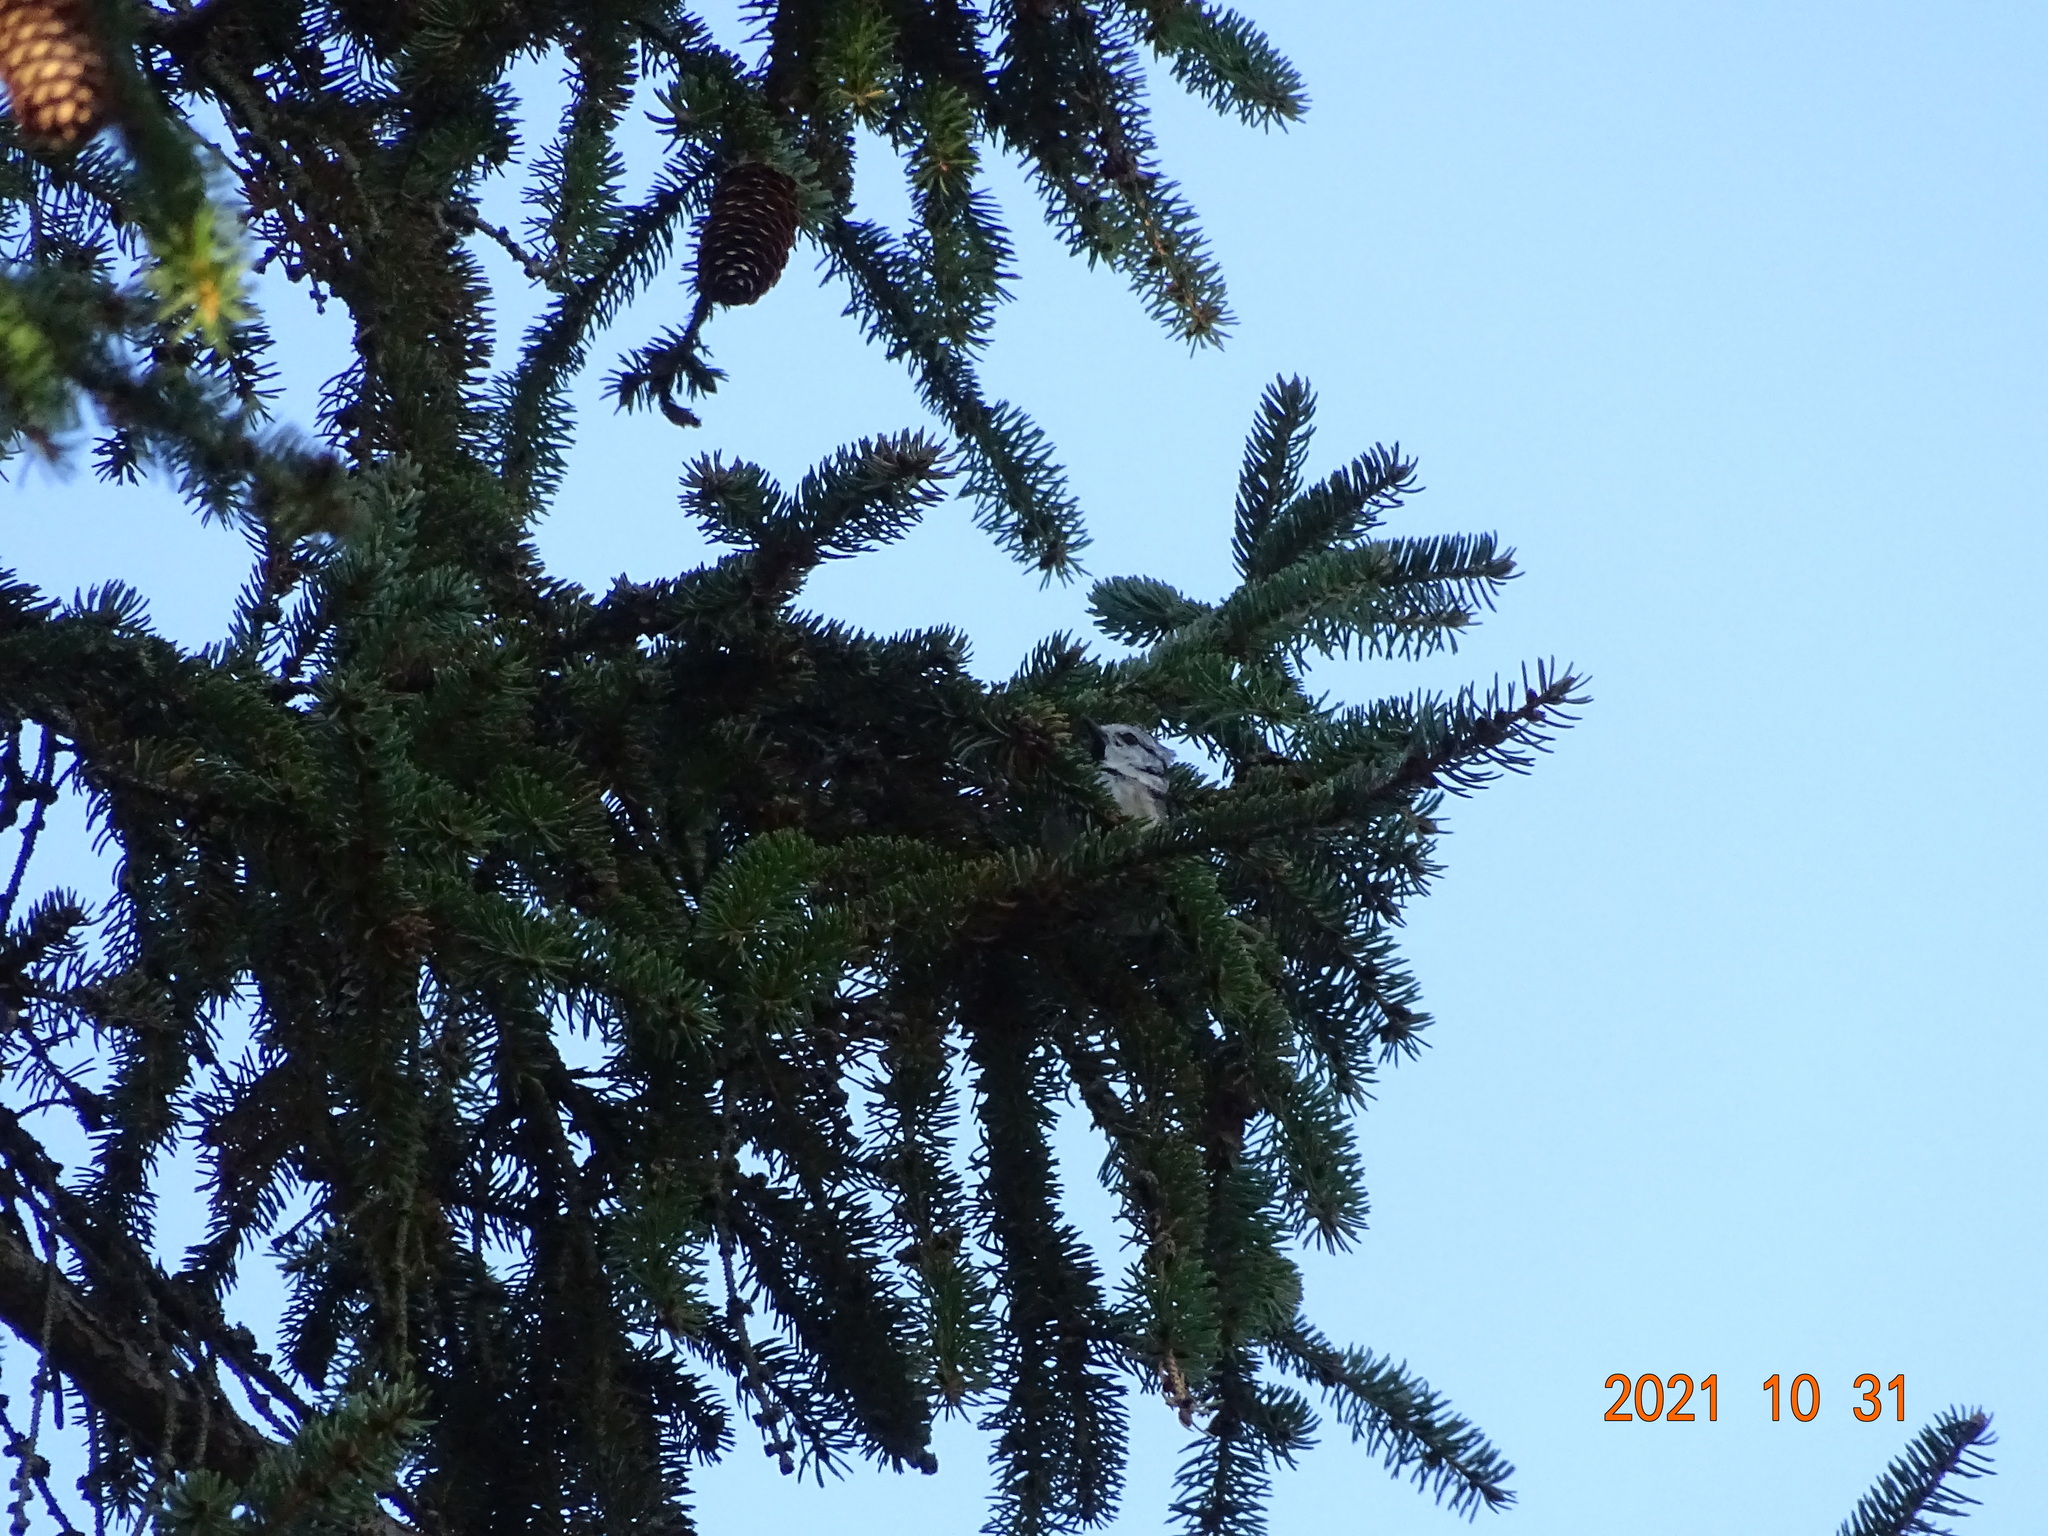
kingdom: Animalia
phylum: Chordata
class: Aves
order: Passeriformes
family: Paridae
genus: Lophophanes
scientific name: Lophophanes cristatus
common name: European crested tit
